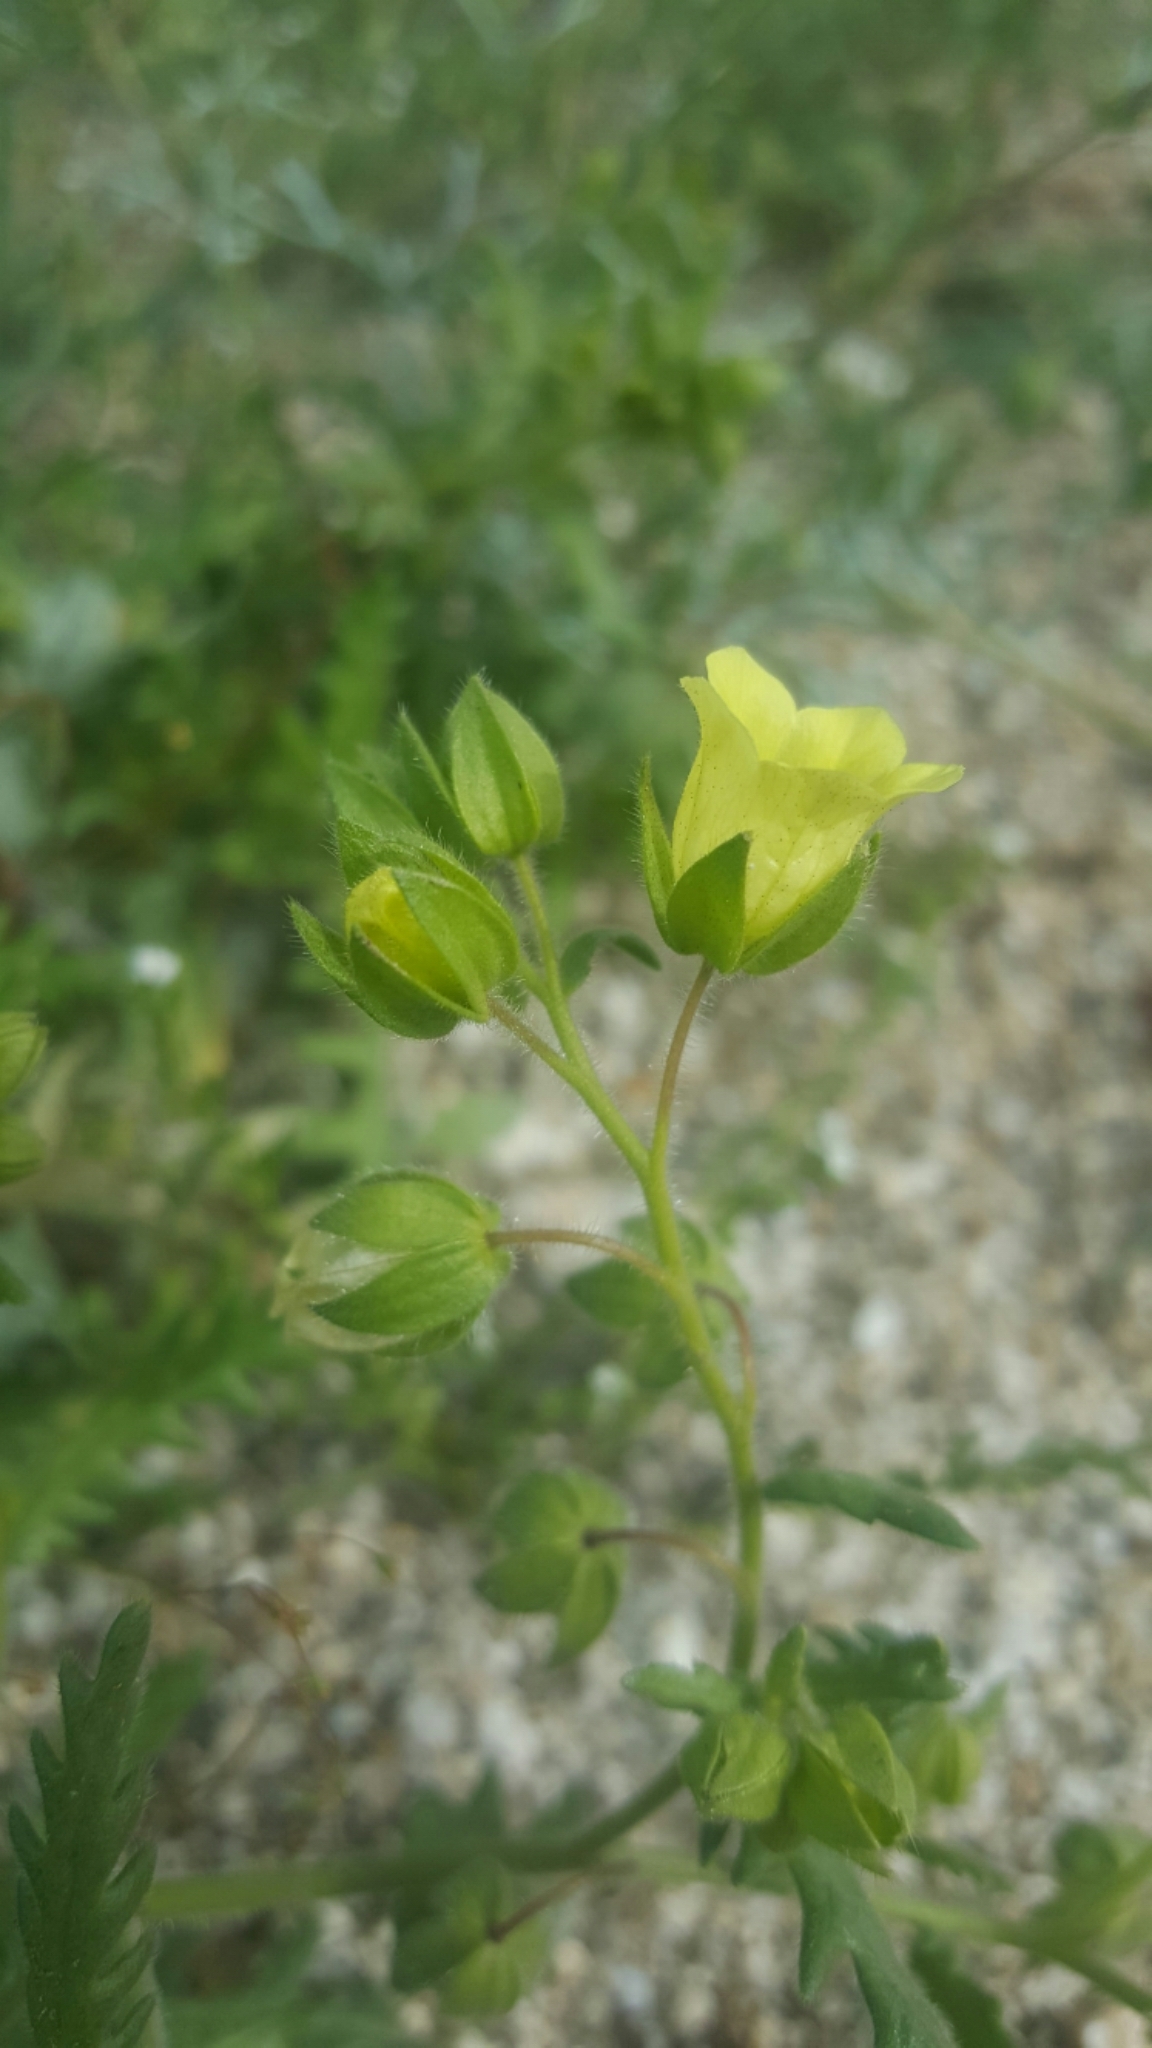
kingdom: Plantae
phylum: Tracheophyta
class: Magnoliopsida
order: Boraginales
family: Hydrophyllaceae
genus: Emmenanthe
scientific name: Emmenanthe penduliflora
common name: Whispering-bells
